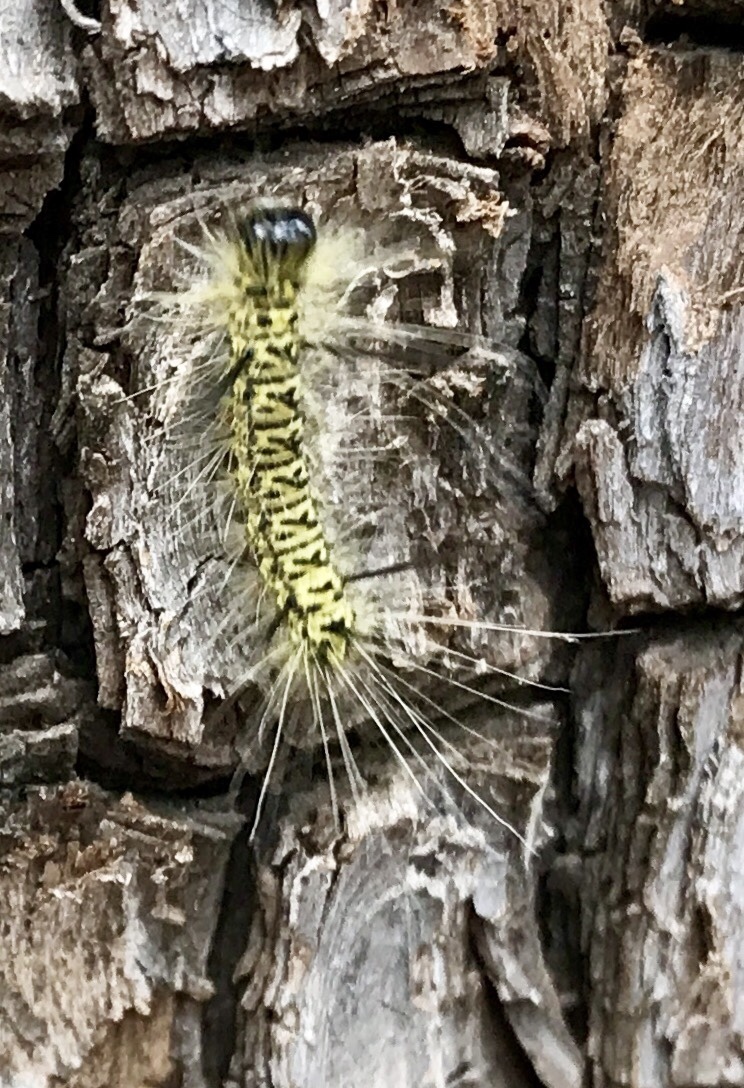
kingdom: Animalia
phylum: Arthropoda
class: Insecta
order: Lepidoptera
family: Erebidae
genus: Lophocampa
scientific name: Lophocampa mixta
